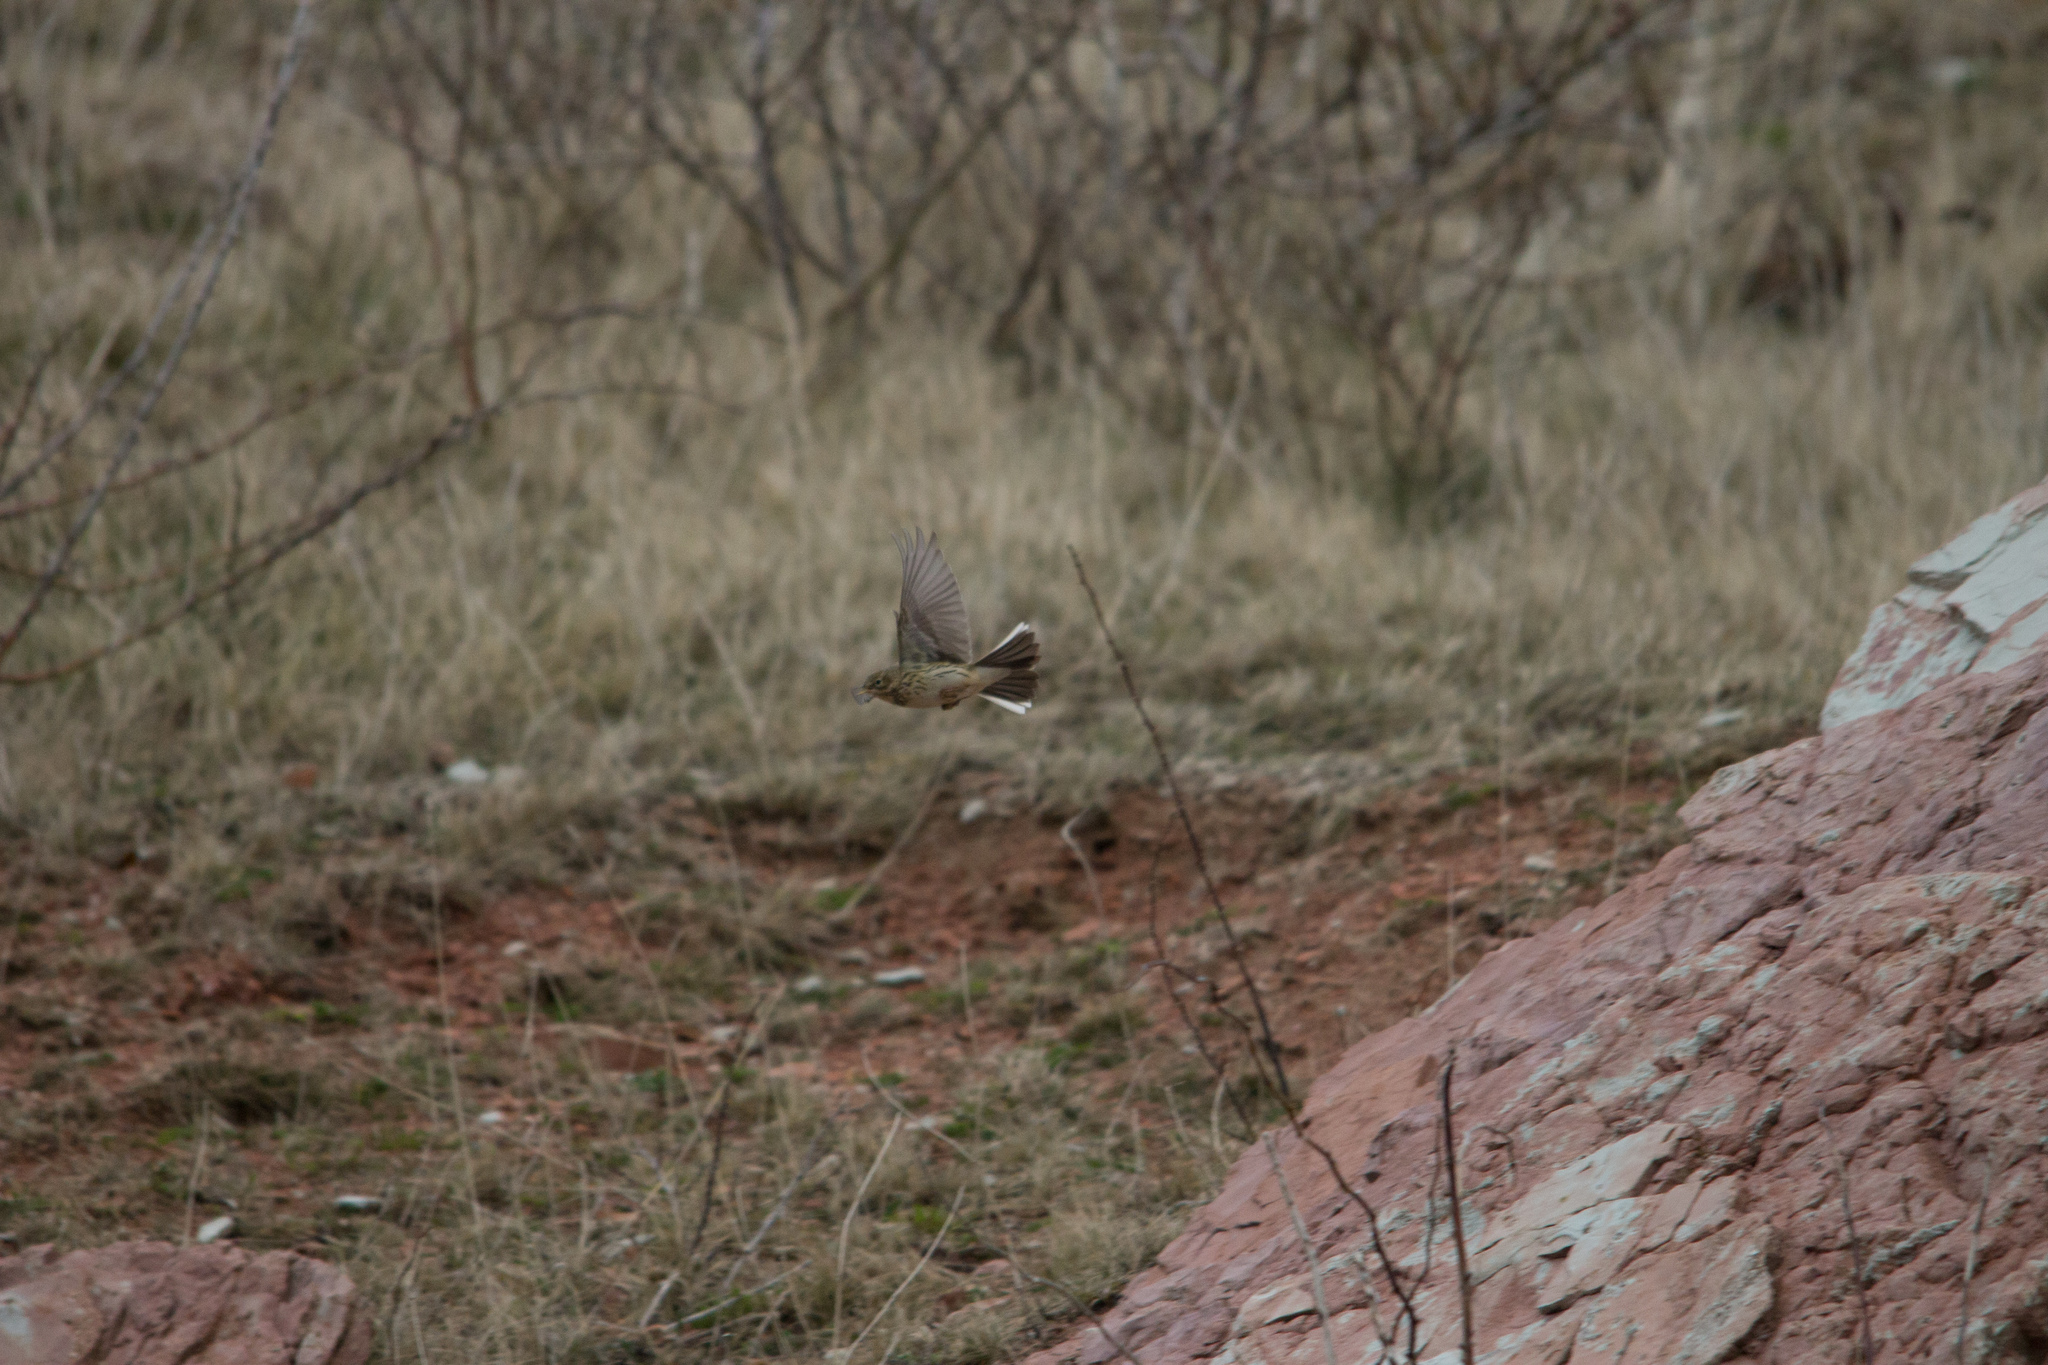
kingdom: Animalia
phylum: Chordata
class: Aves
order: Passeriformes
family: Motacillidae
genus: Anthus
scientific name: Anthus pratensis
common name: Meadow pipit
